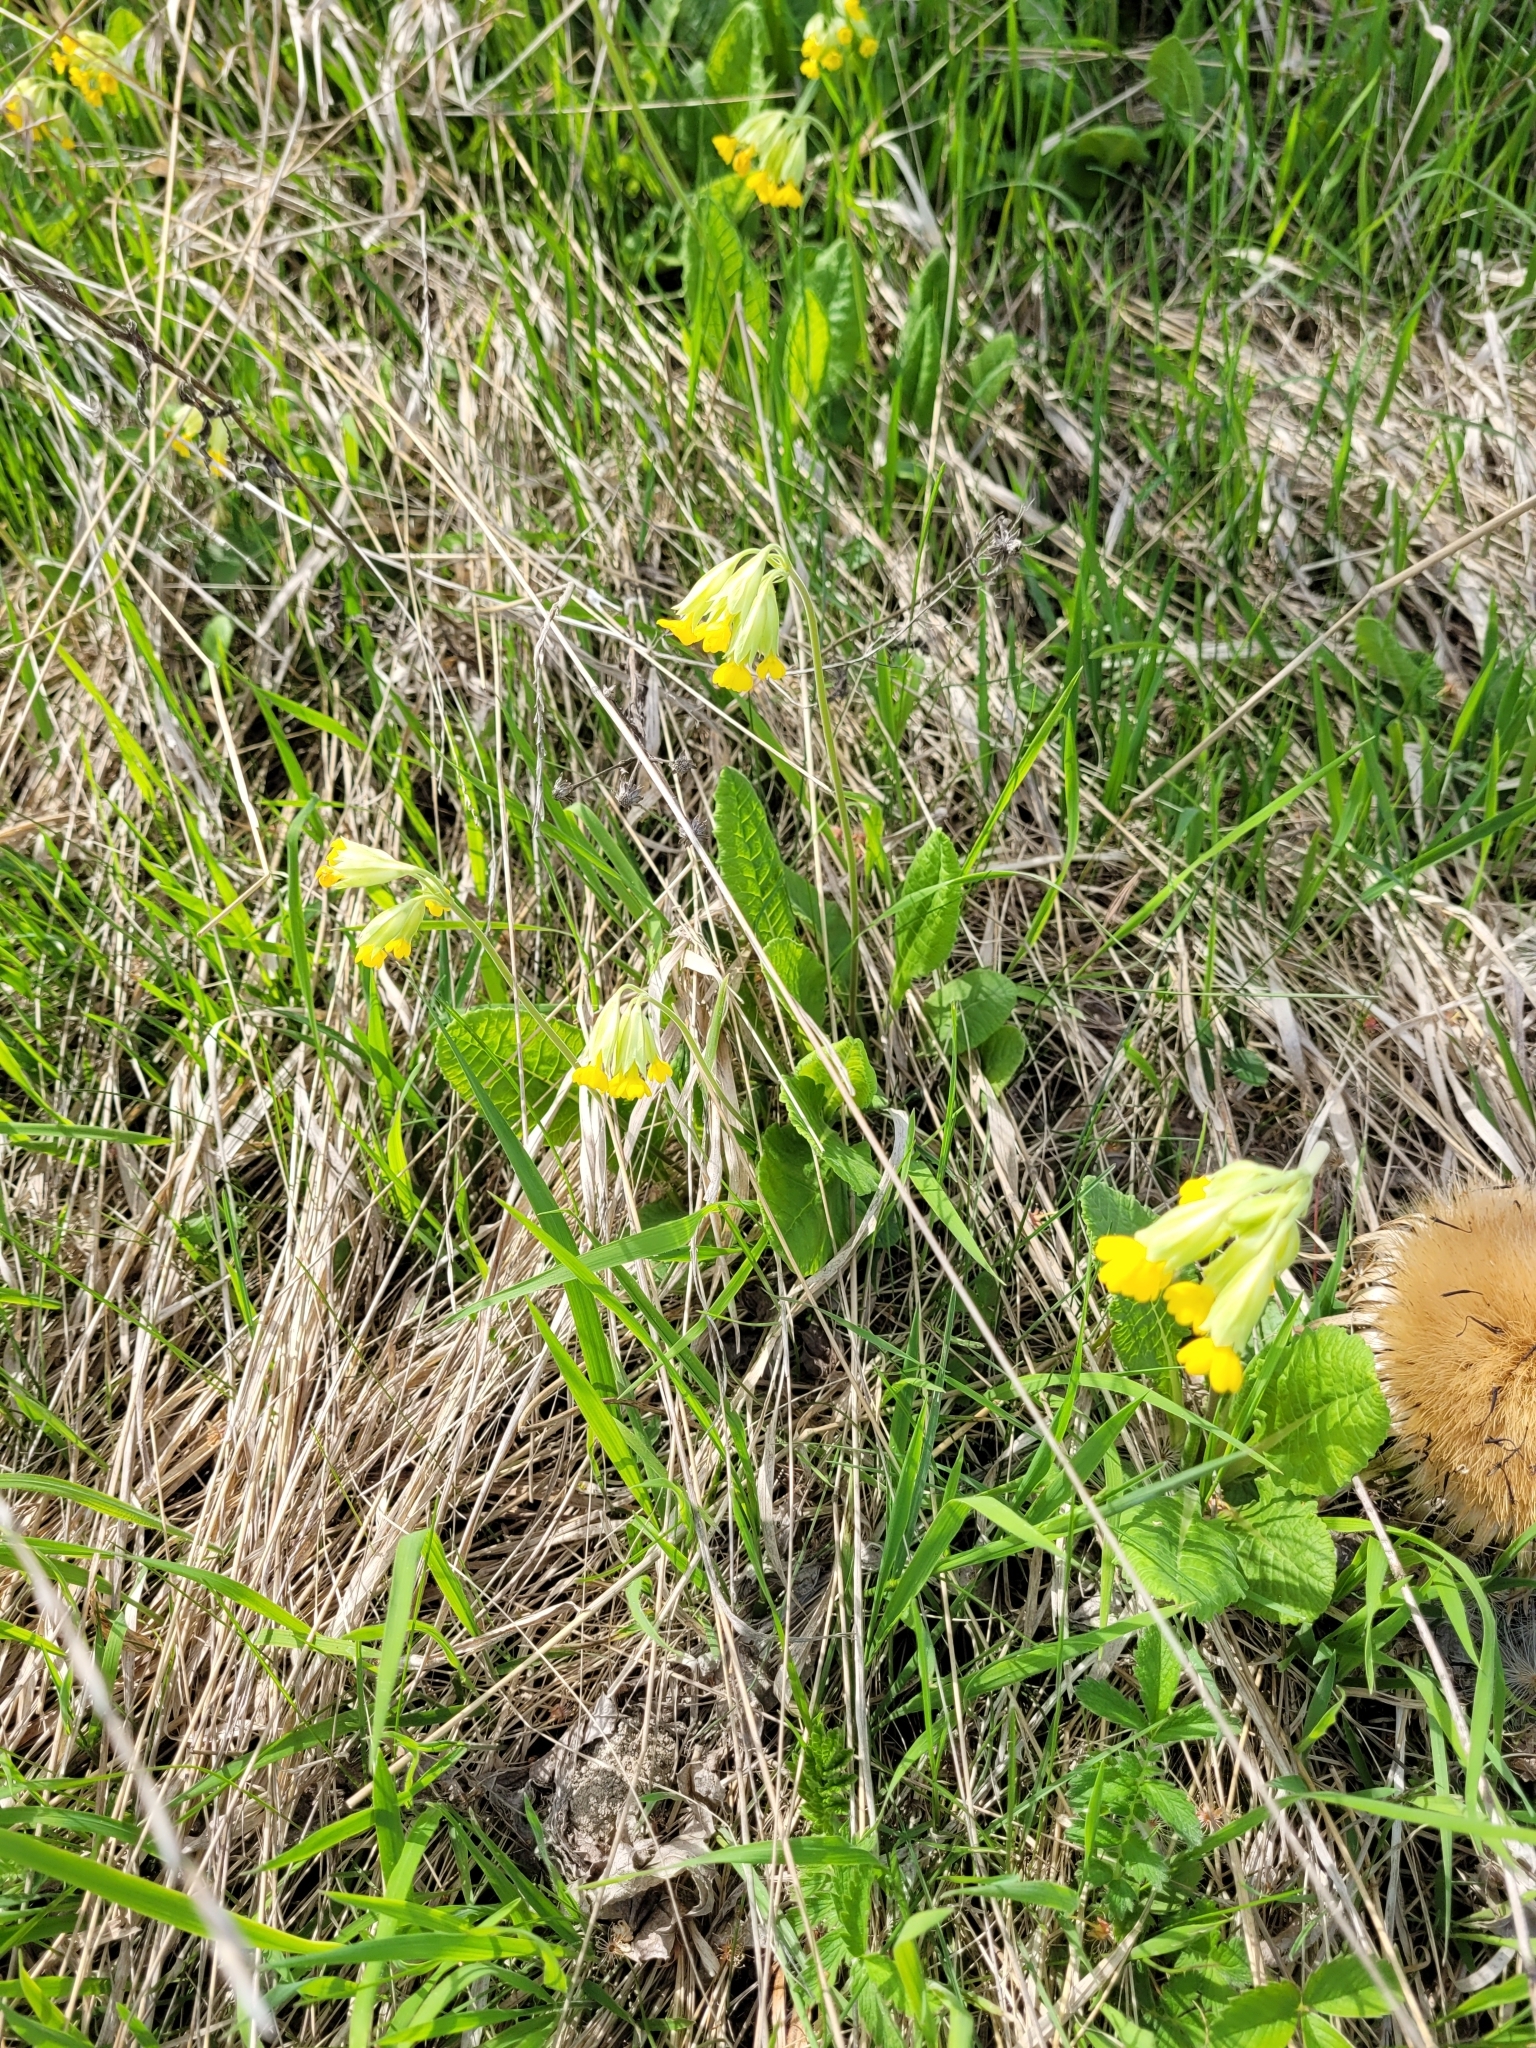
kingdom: Plantae
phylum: Tracheophyta
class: Magnoliopsida
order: Ericales
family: Primulaceae
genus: Primula
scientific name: Primula veris
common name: Cowslip
